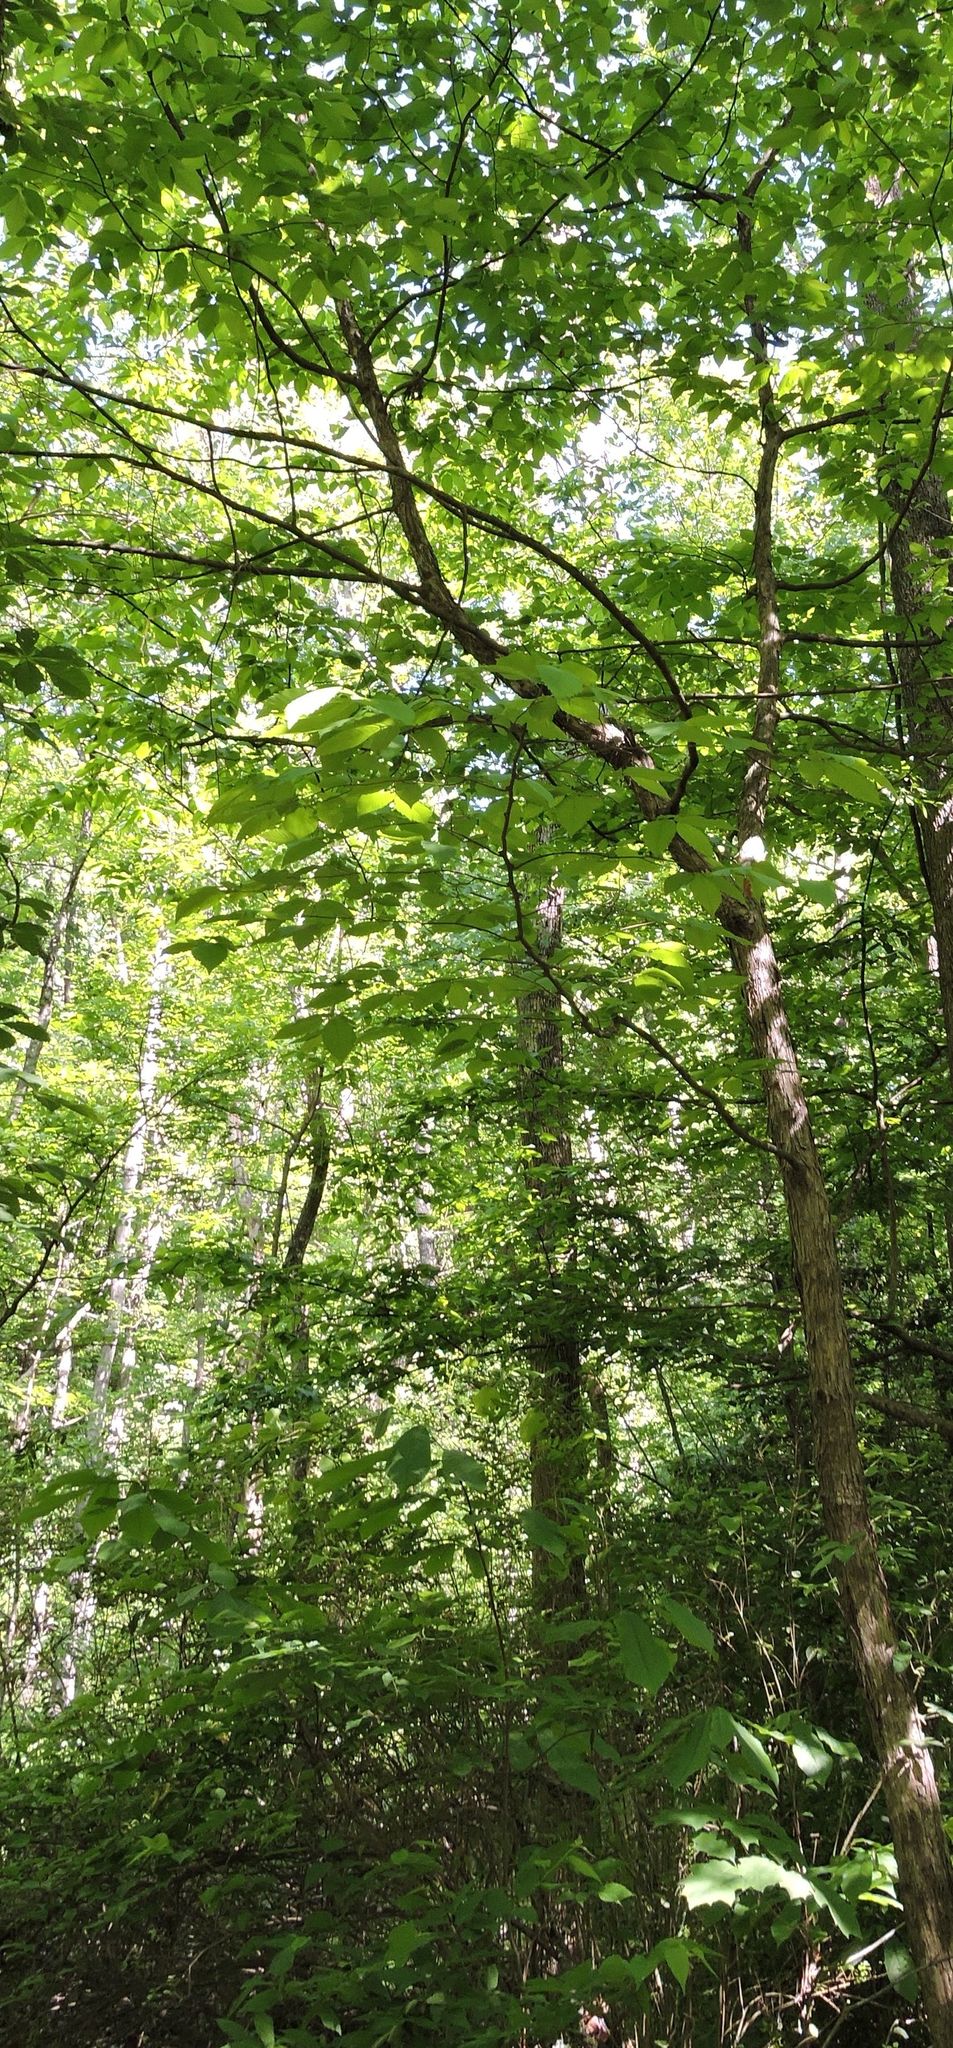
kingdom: Plantae
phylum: Tracheophyta
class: Magnoliopsida
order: Fagales
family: Betulaceae
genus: Ostrya
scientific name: Ostrya virginiana
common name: Ironwood
